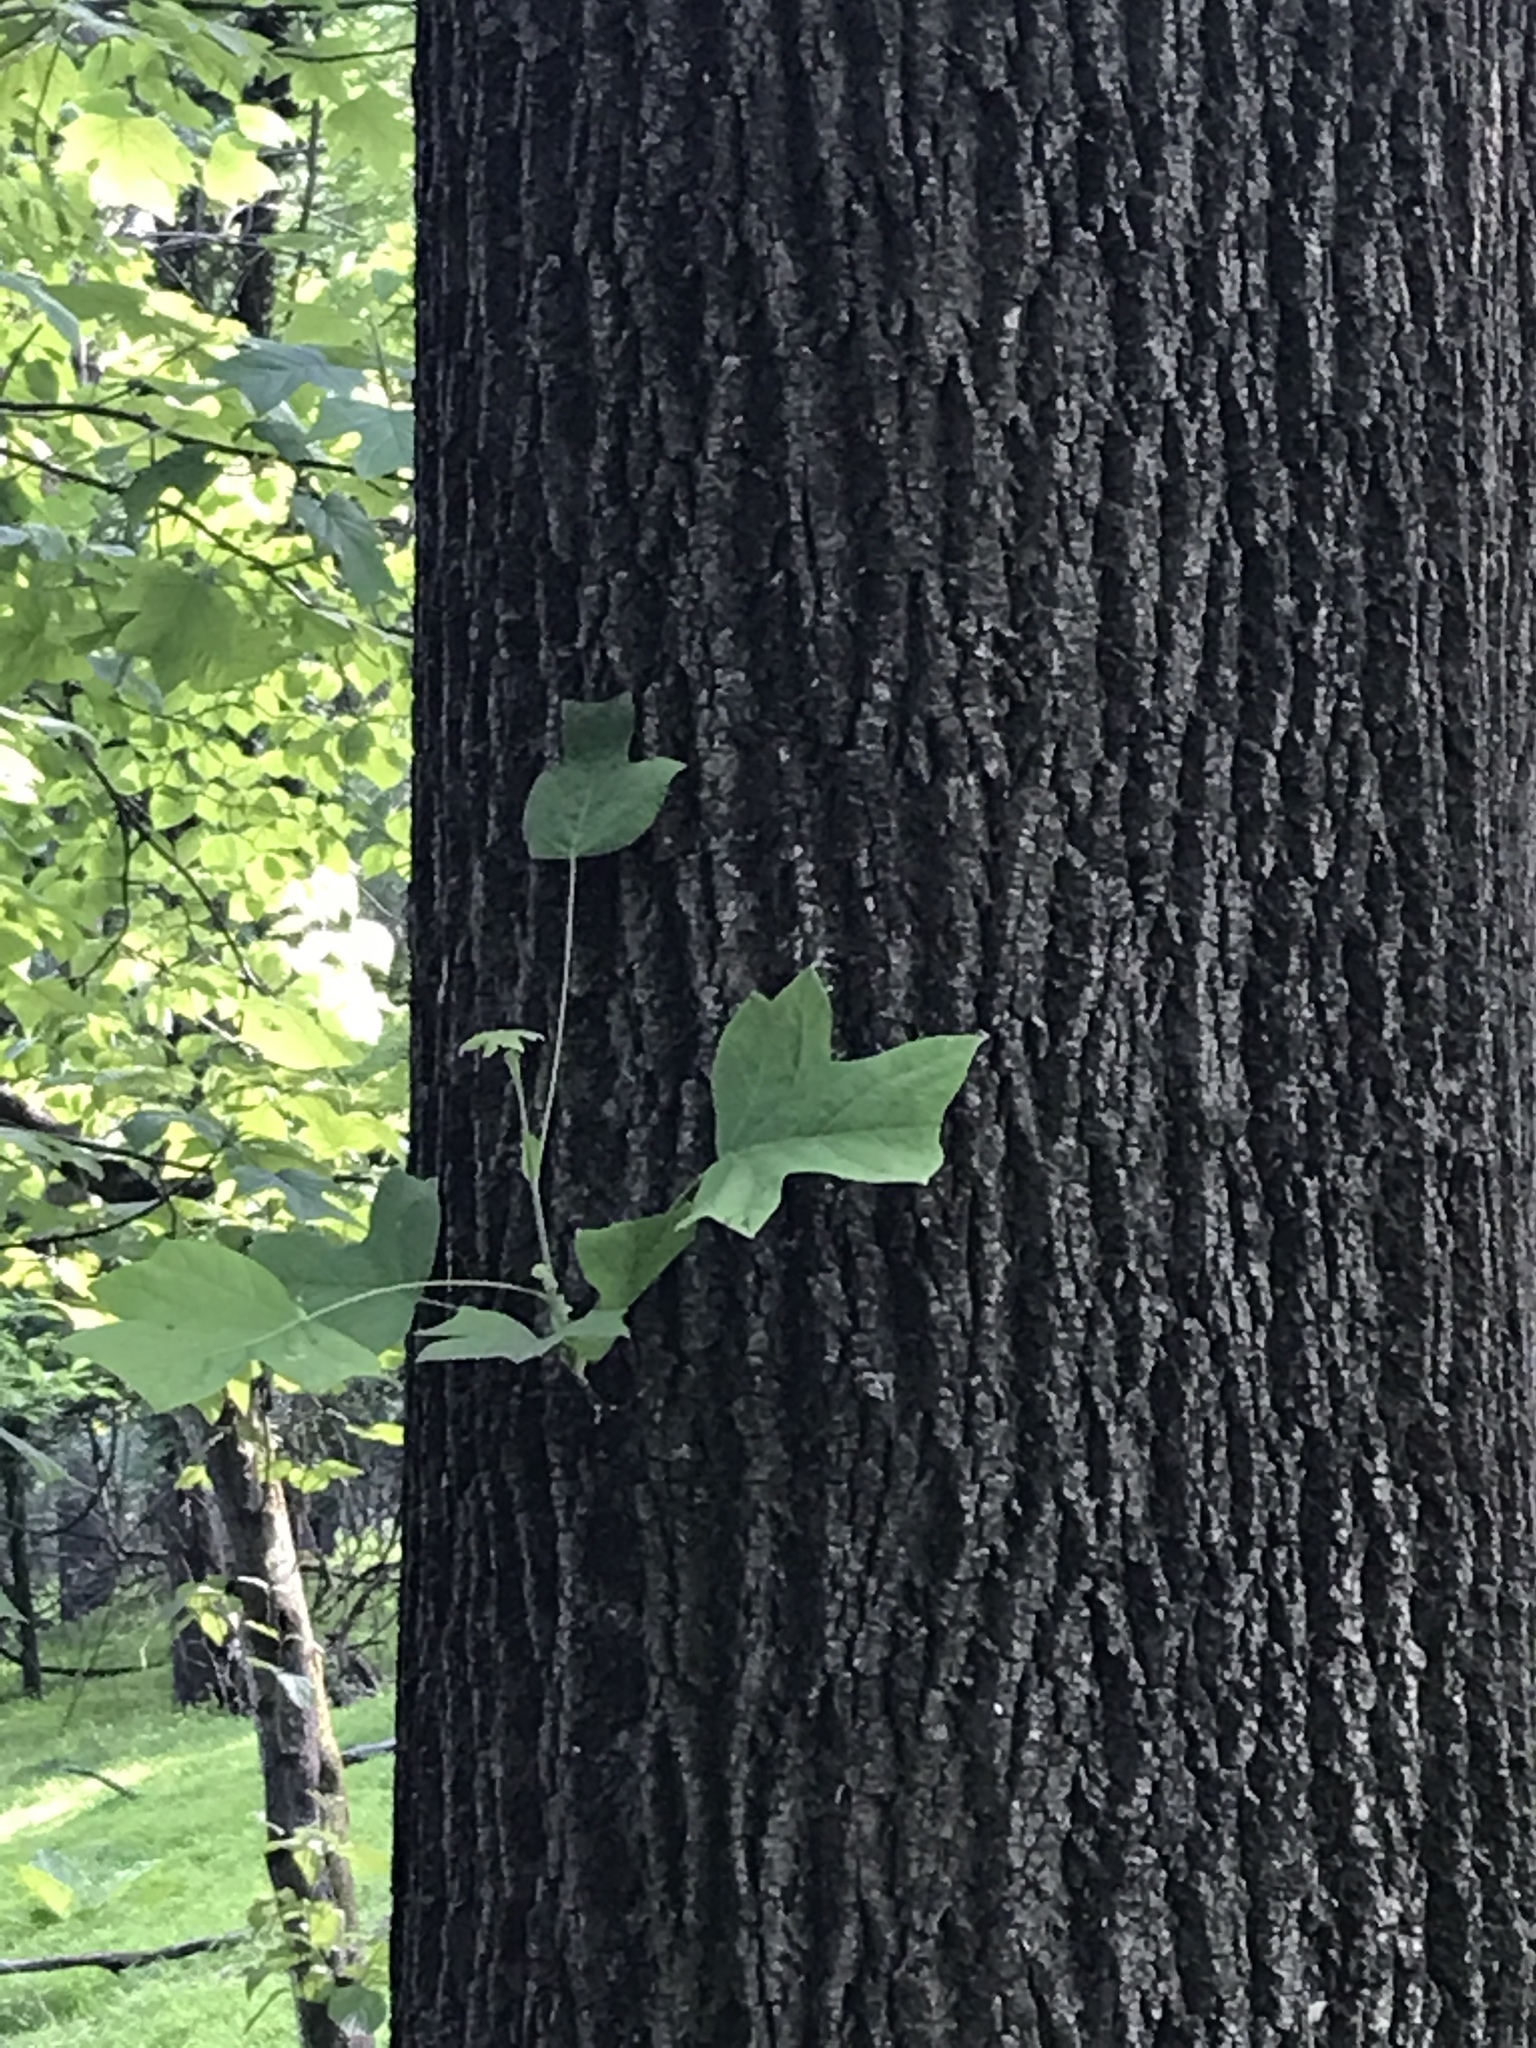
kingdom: Plantae
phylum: Tracheophyta
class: Magnoliopsida
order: Magnoliales
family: Magnoliaceae
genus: Liriodendron
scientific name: Liriodendron tulipifera
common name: Tulip tree
